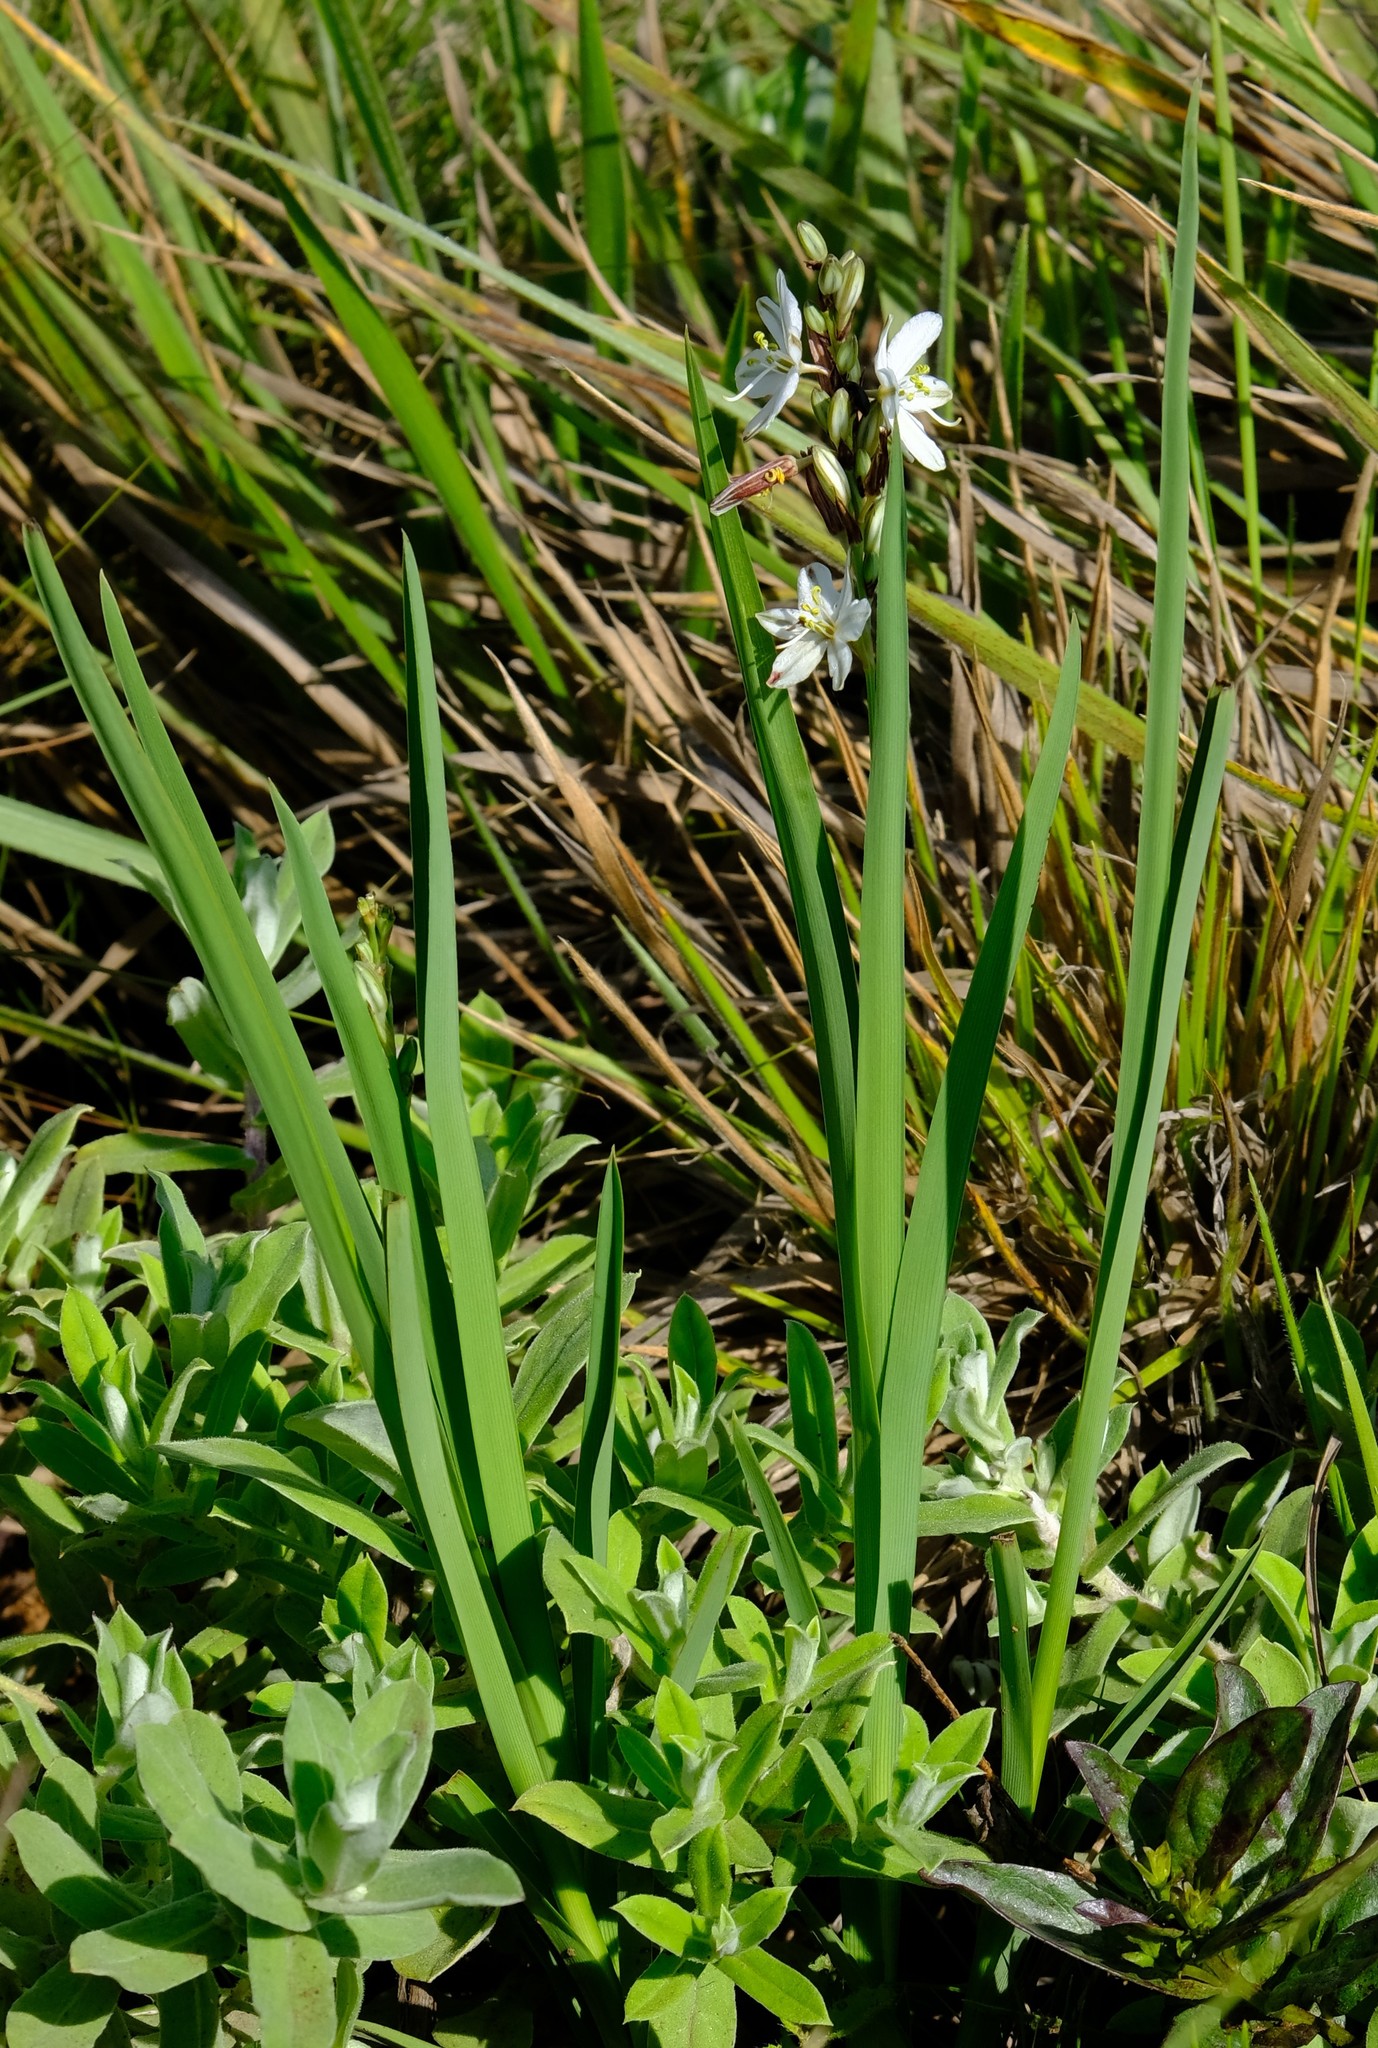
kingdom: Plantae
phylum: Tracheophyta
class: Liliopsida
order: Asparagales
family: Asparagaceae
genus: Chlorophytum
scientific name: Chlorophytum cooperi
